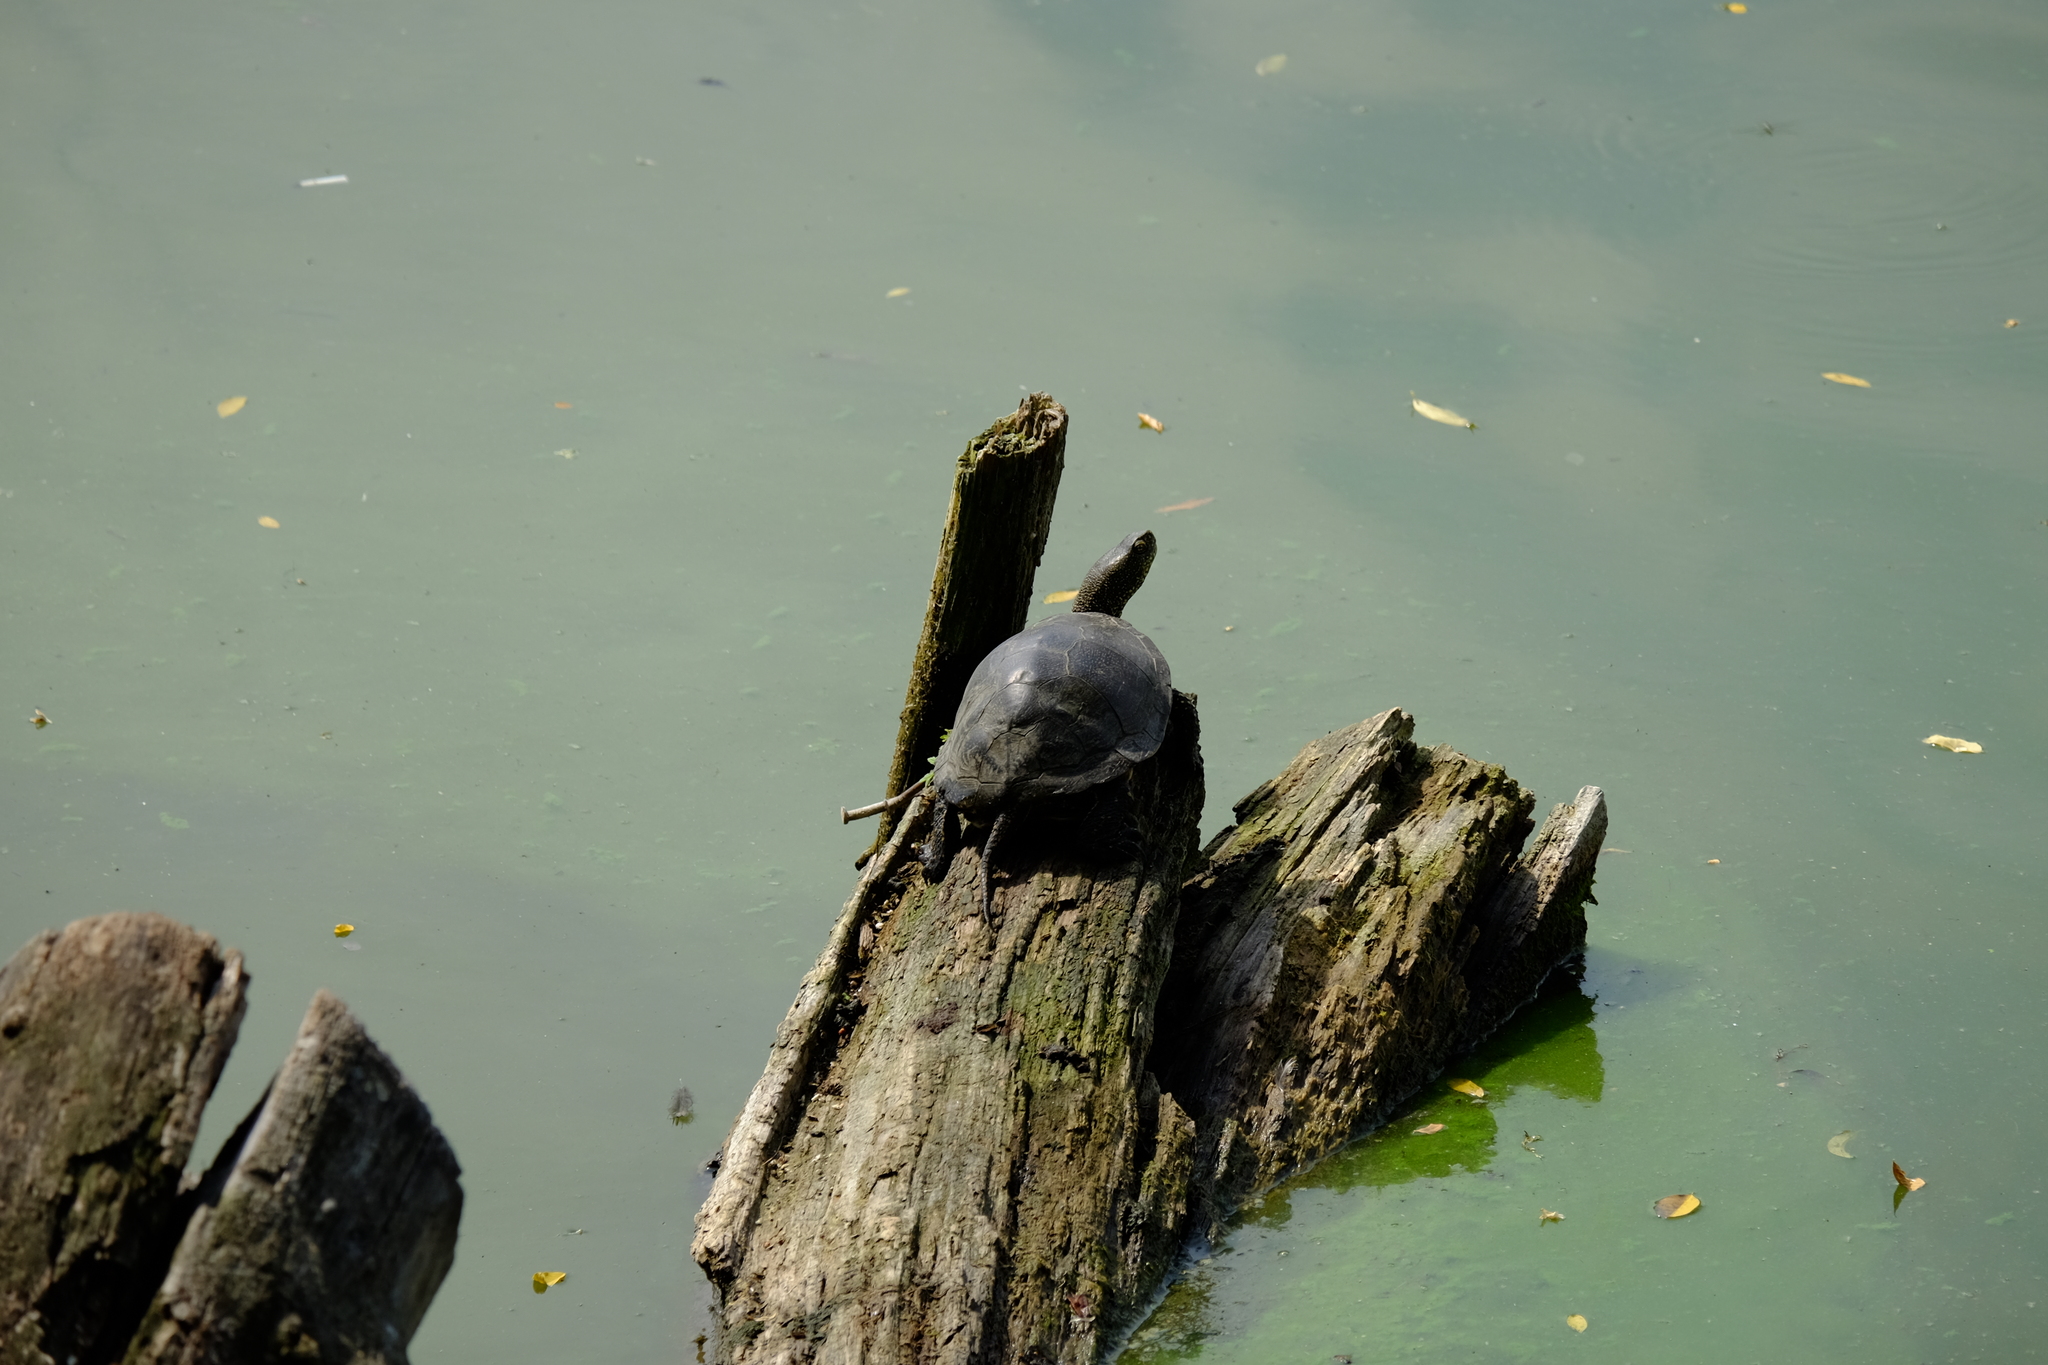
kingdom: Animalia
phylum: Chordata
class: Testudines
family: Emydidae
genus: Emys
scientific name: Emys orbicularis
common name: European pond turtle
